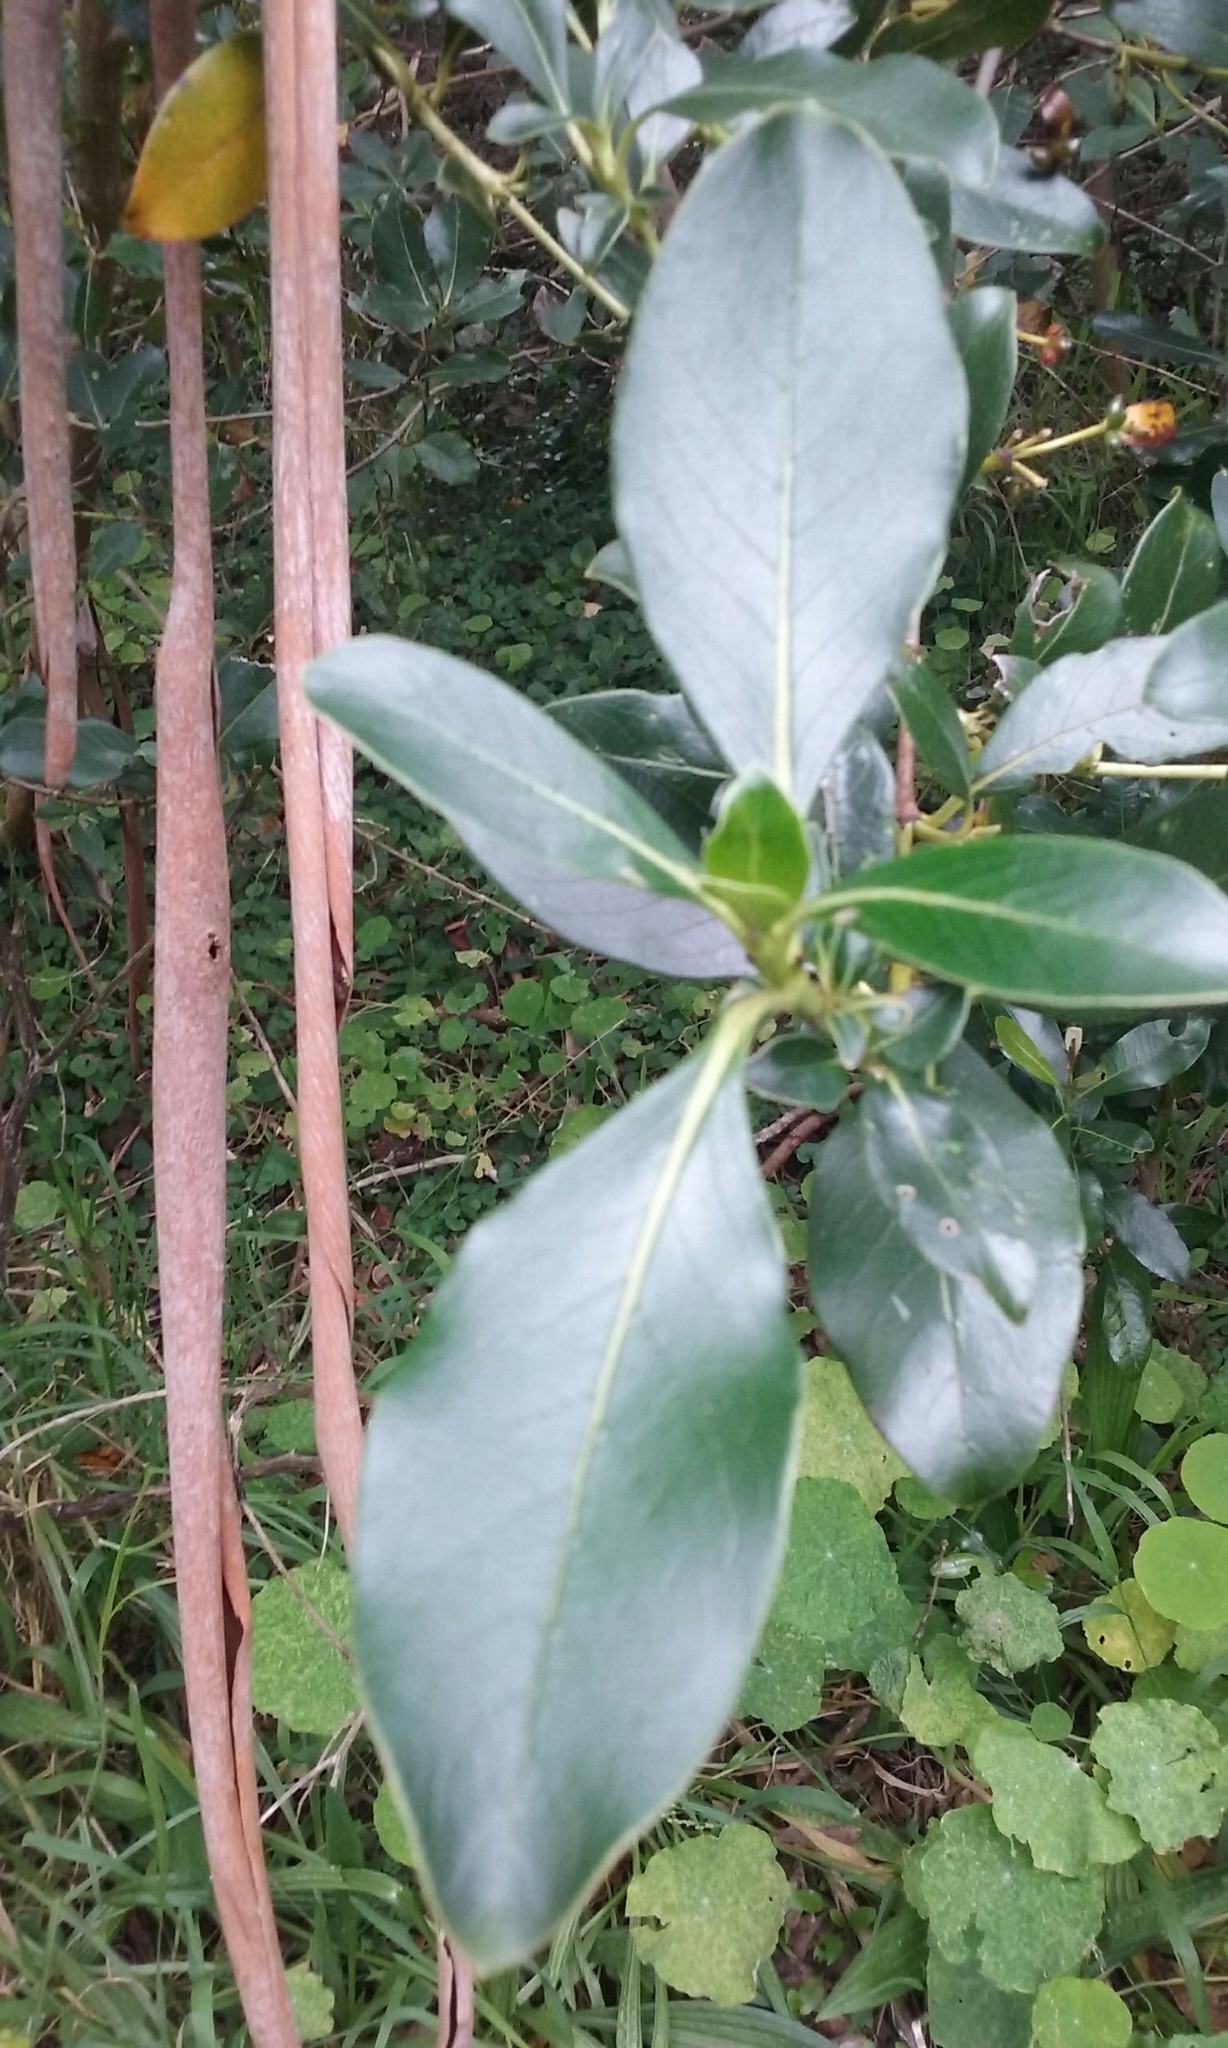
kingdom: Plantae
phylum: Tracheophyta
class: Magnoliopsida
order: Gentianales
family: Rubiaceae
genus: Coprosma
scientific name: Coprosma robusta
